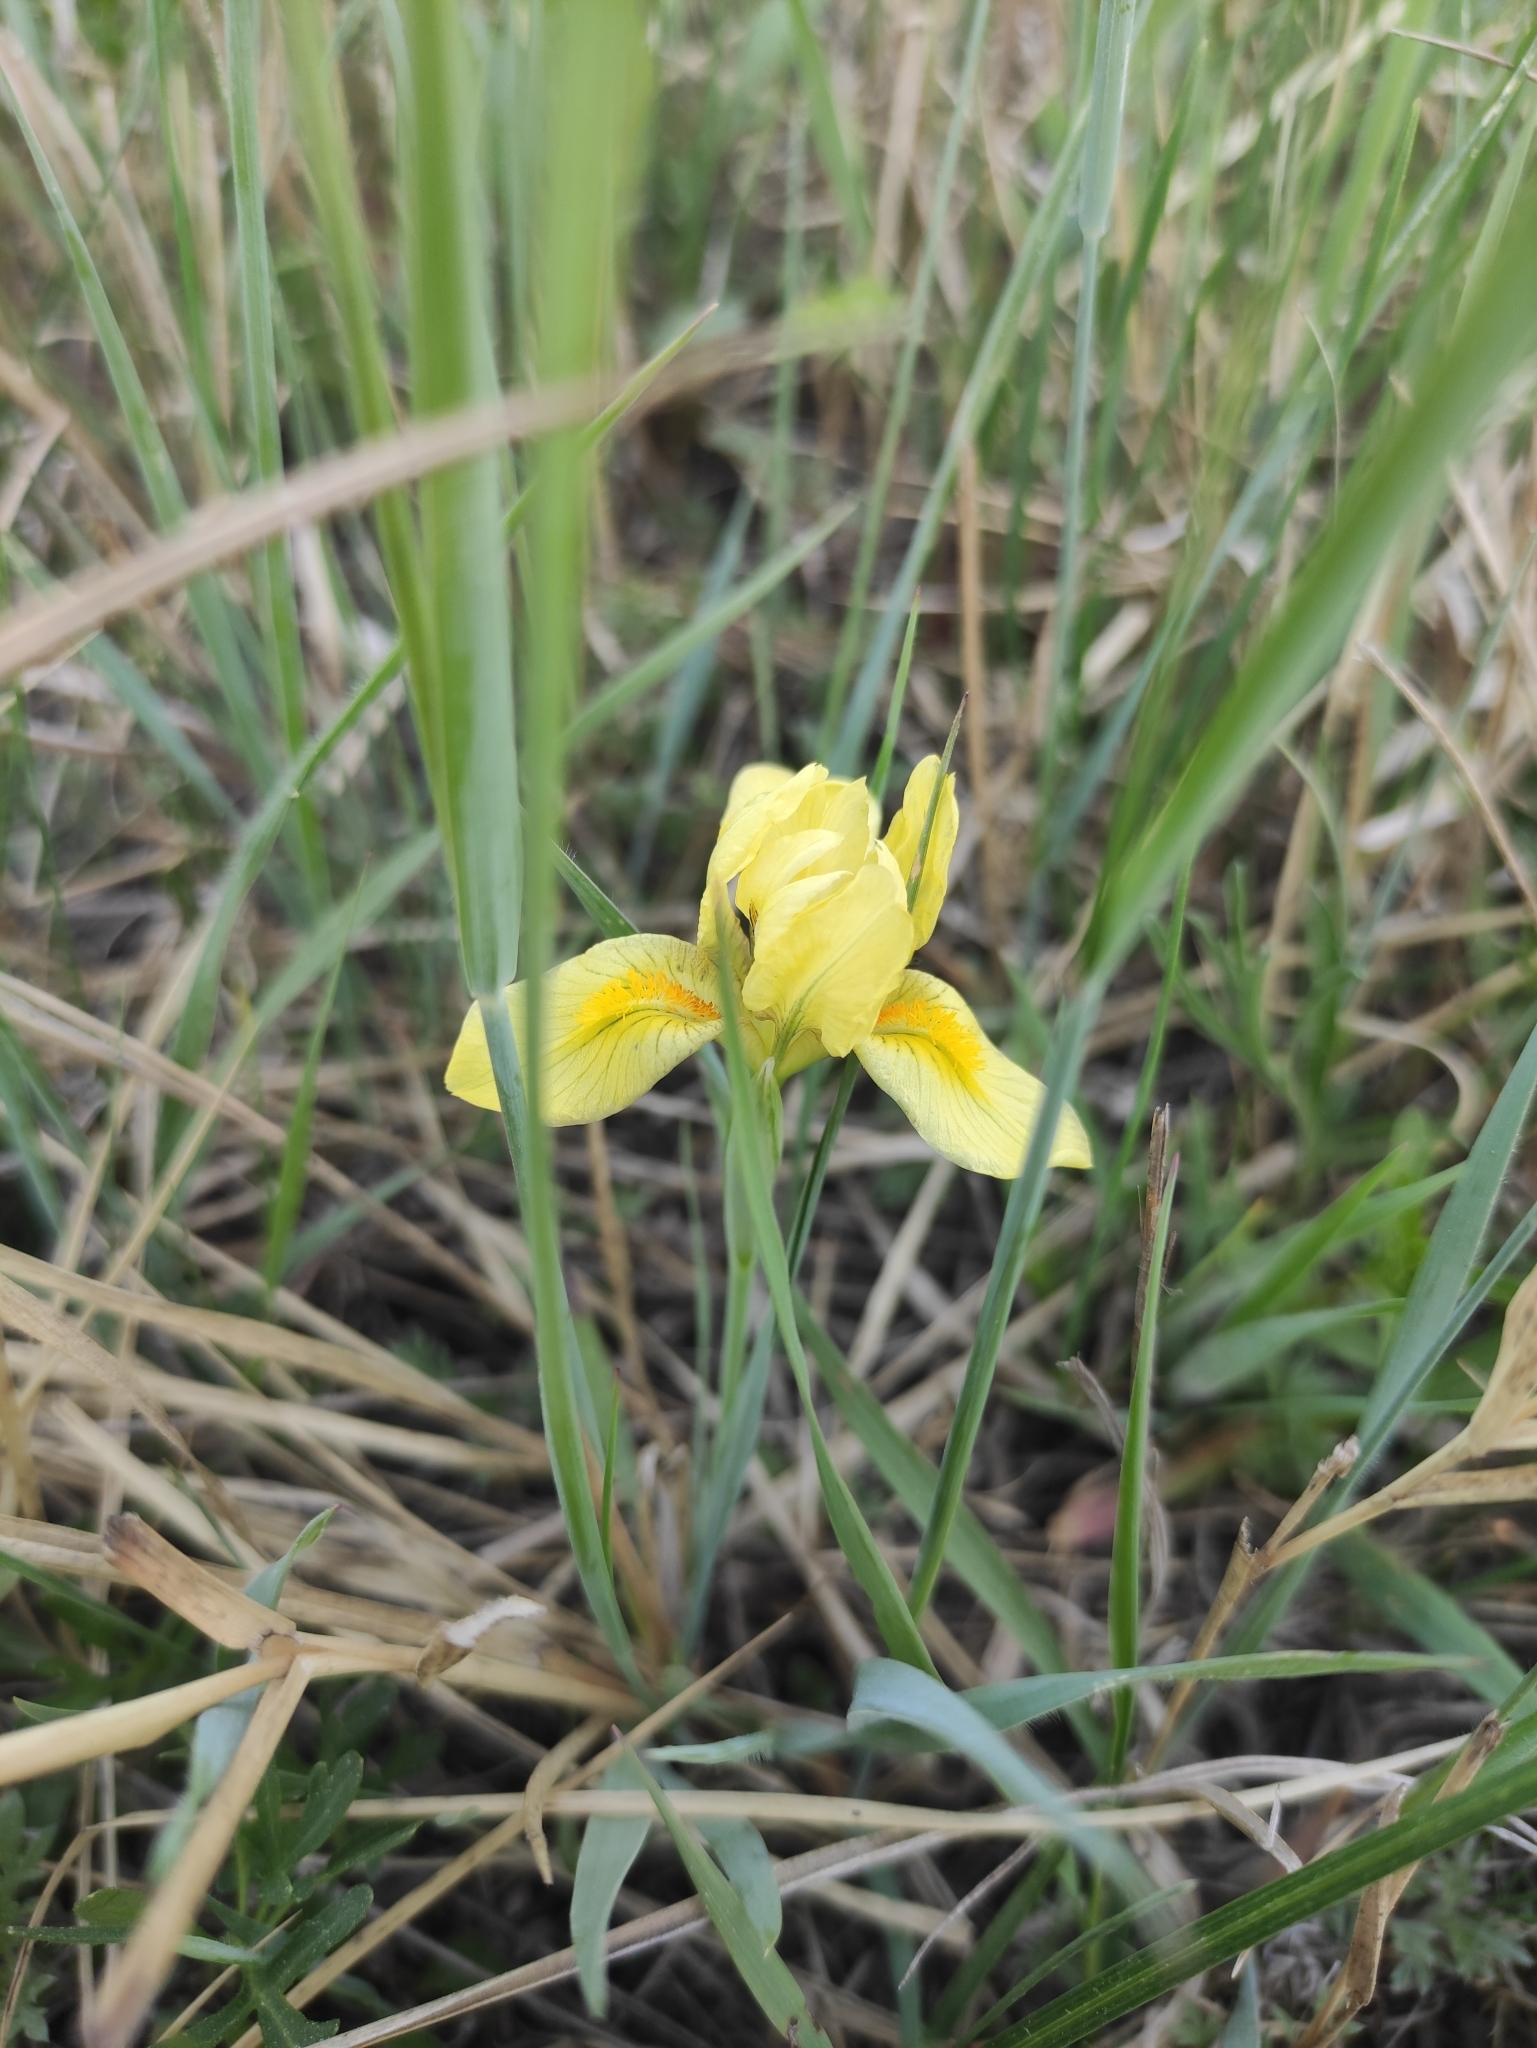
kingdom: Plantae
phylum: Tracheophyta
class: Liliopsida
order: Asparagales
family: Iridaceae
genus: Iris
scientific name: Iris humilis
